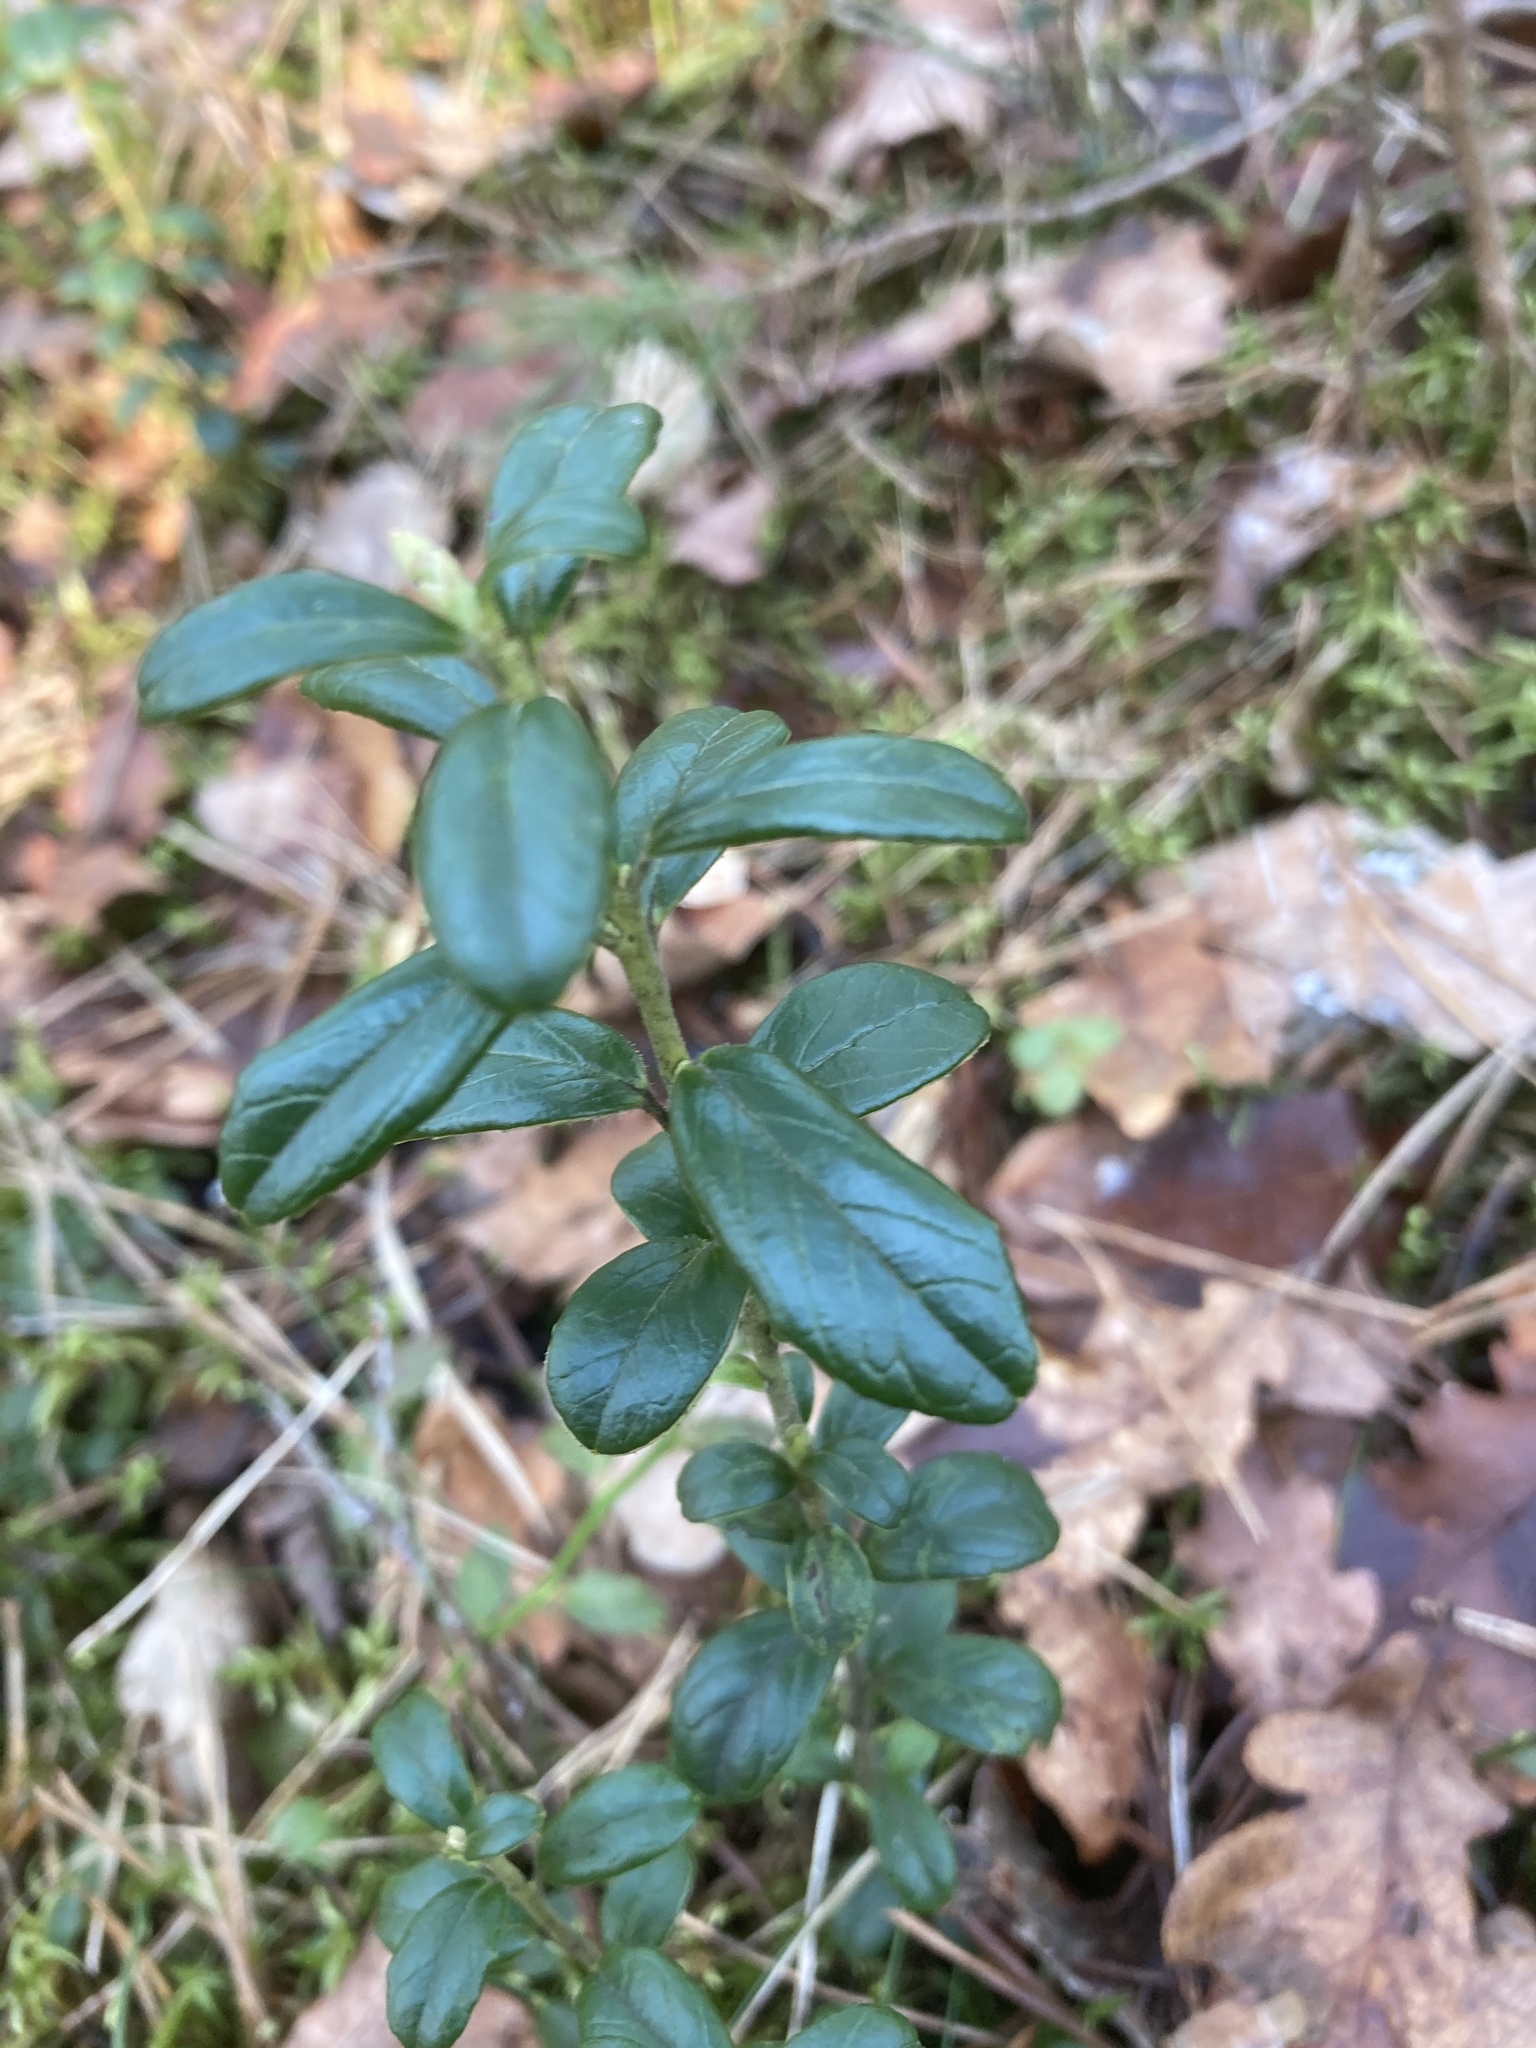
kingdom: Plantae
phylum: Tracheophyta
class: Magnoliopsida
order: Ericales
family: Ericaceae
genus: Vaccinium
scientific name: Vaccinium vitis-idaea
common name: Cowberry
